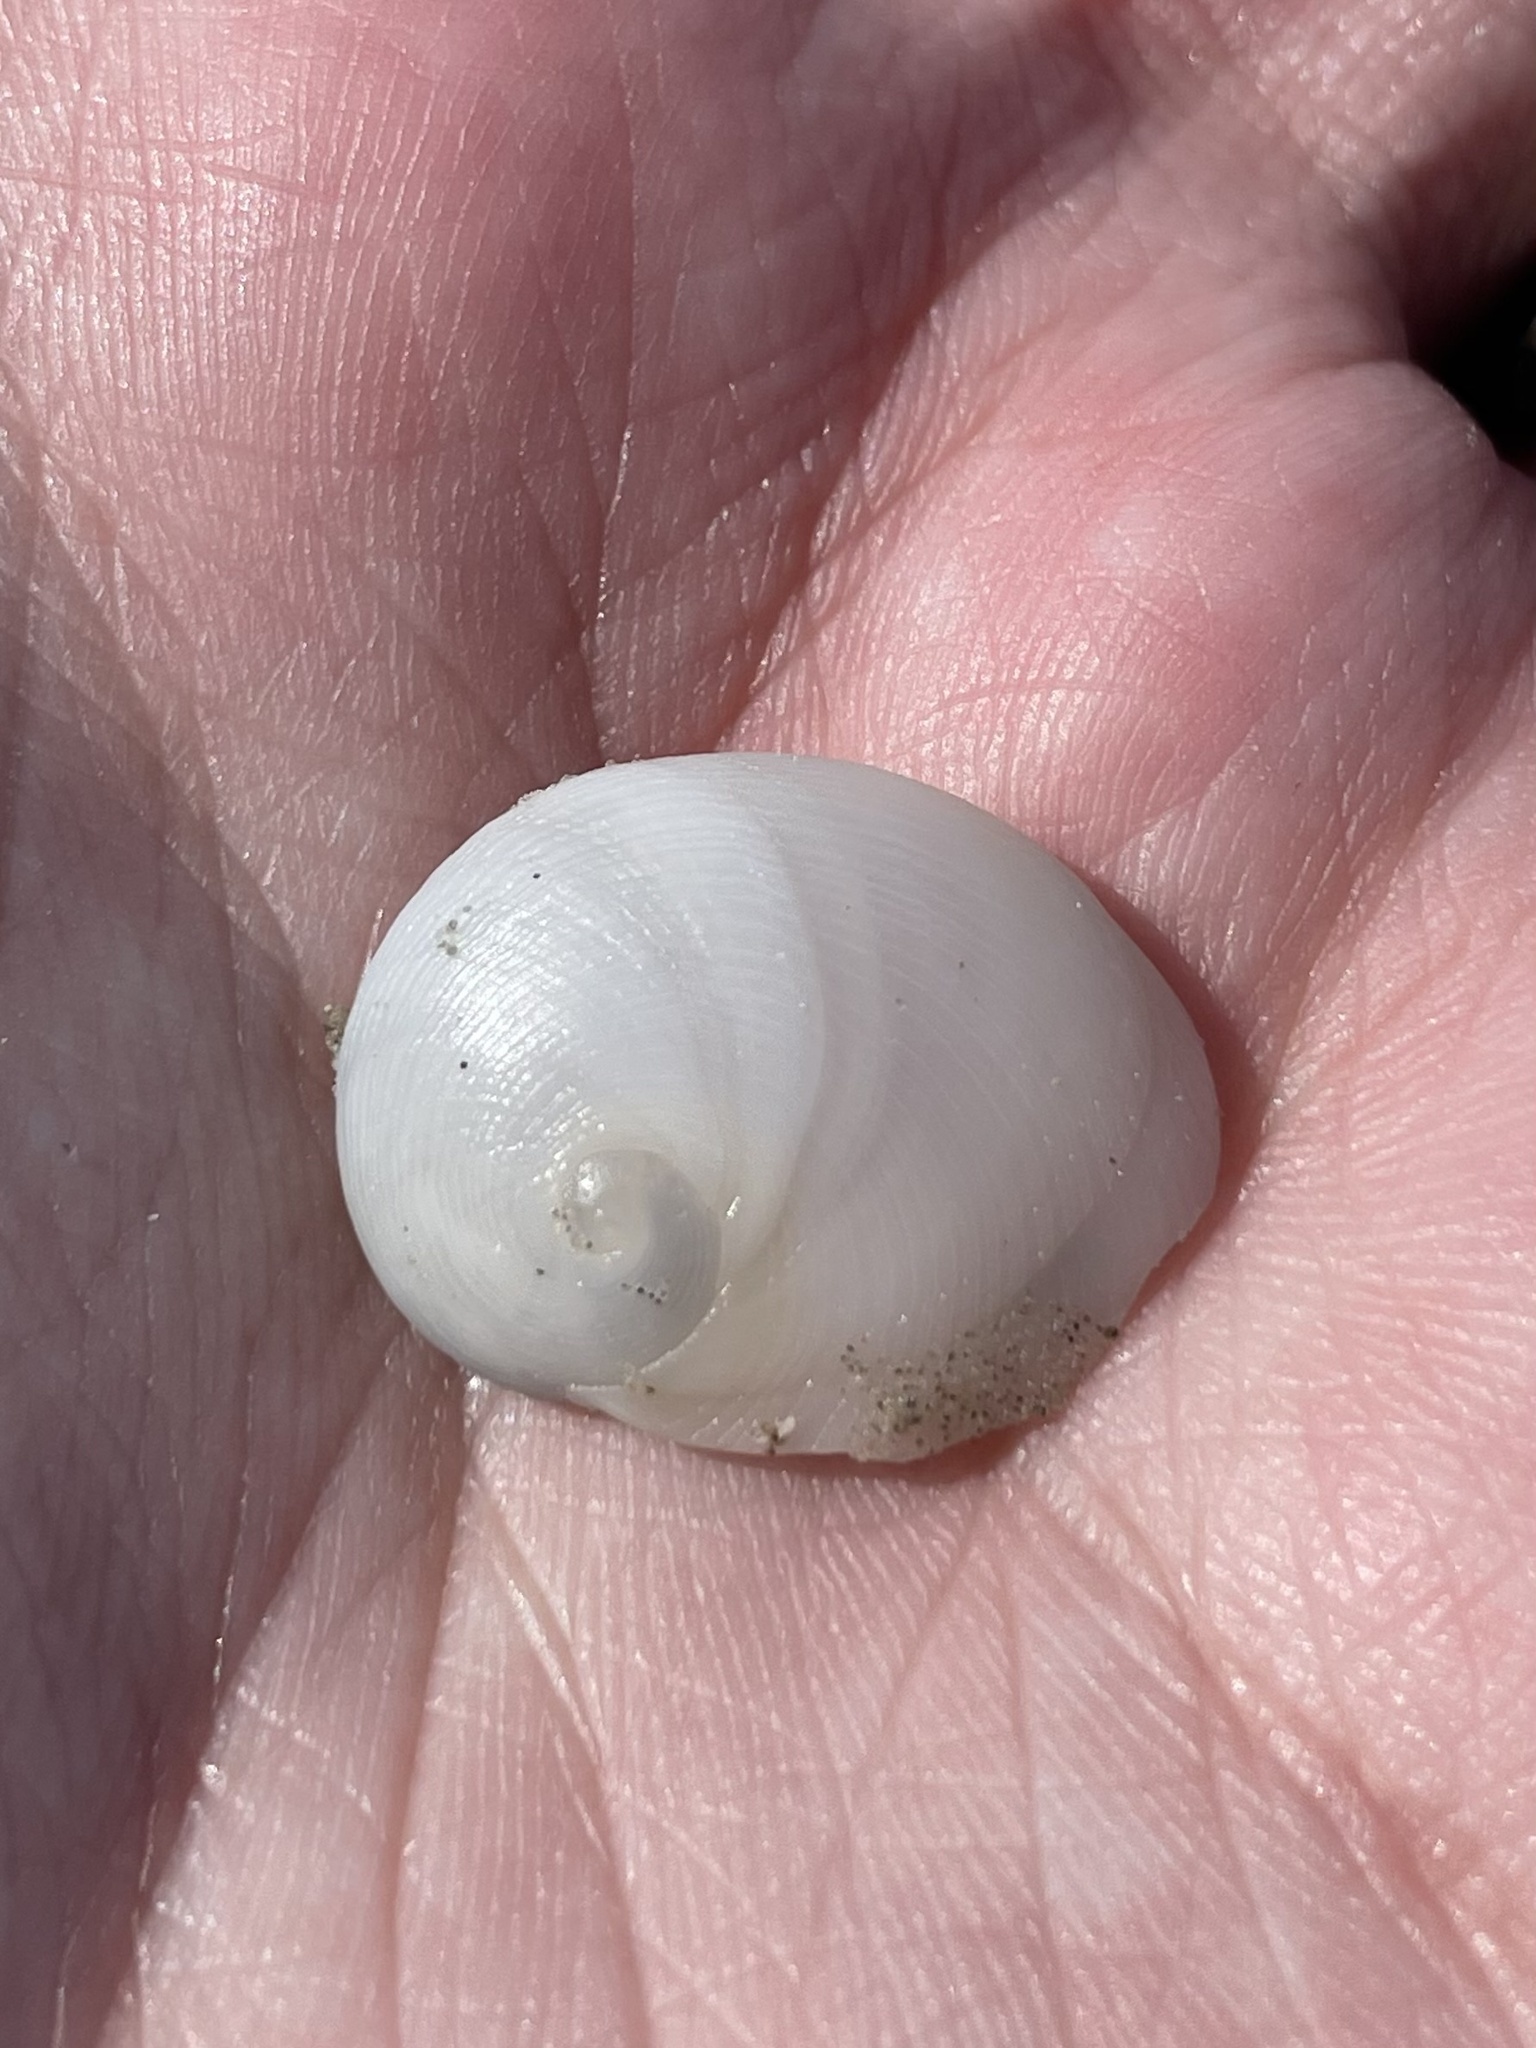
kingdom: Animalia
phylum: Mollusca
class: Gastropoda
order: Littorinimorpha
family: Naticidae
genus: Sinum
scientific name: Sinum perspectivum
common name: White baby ear
